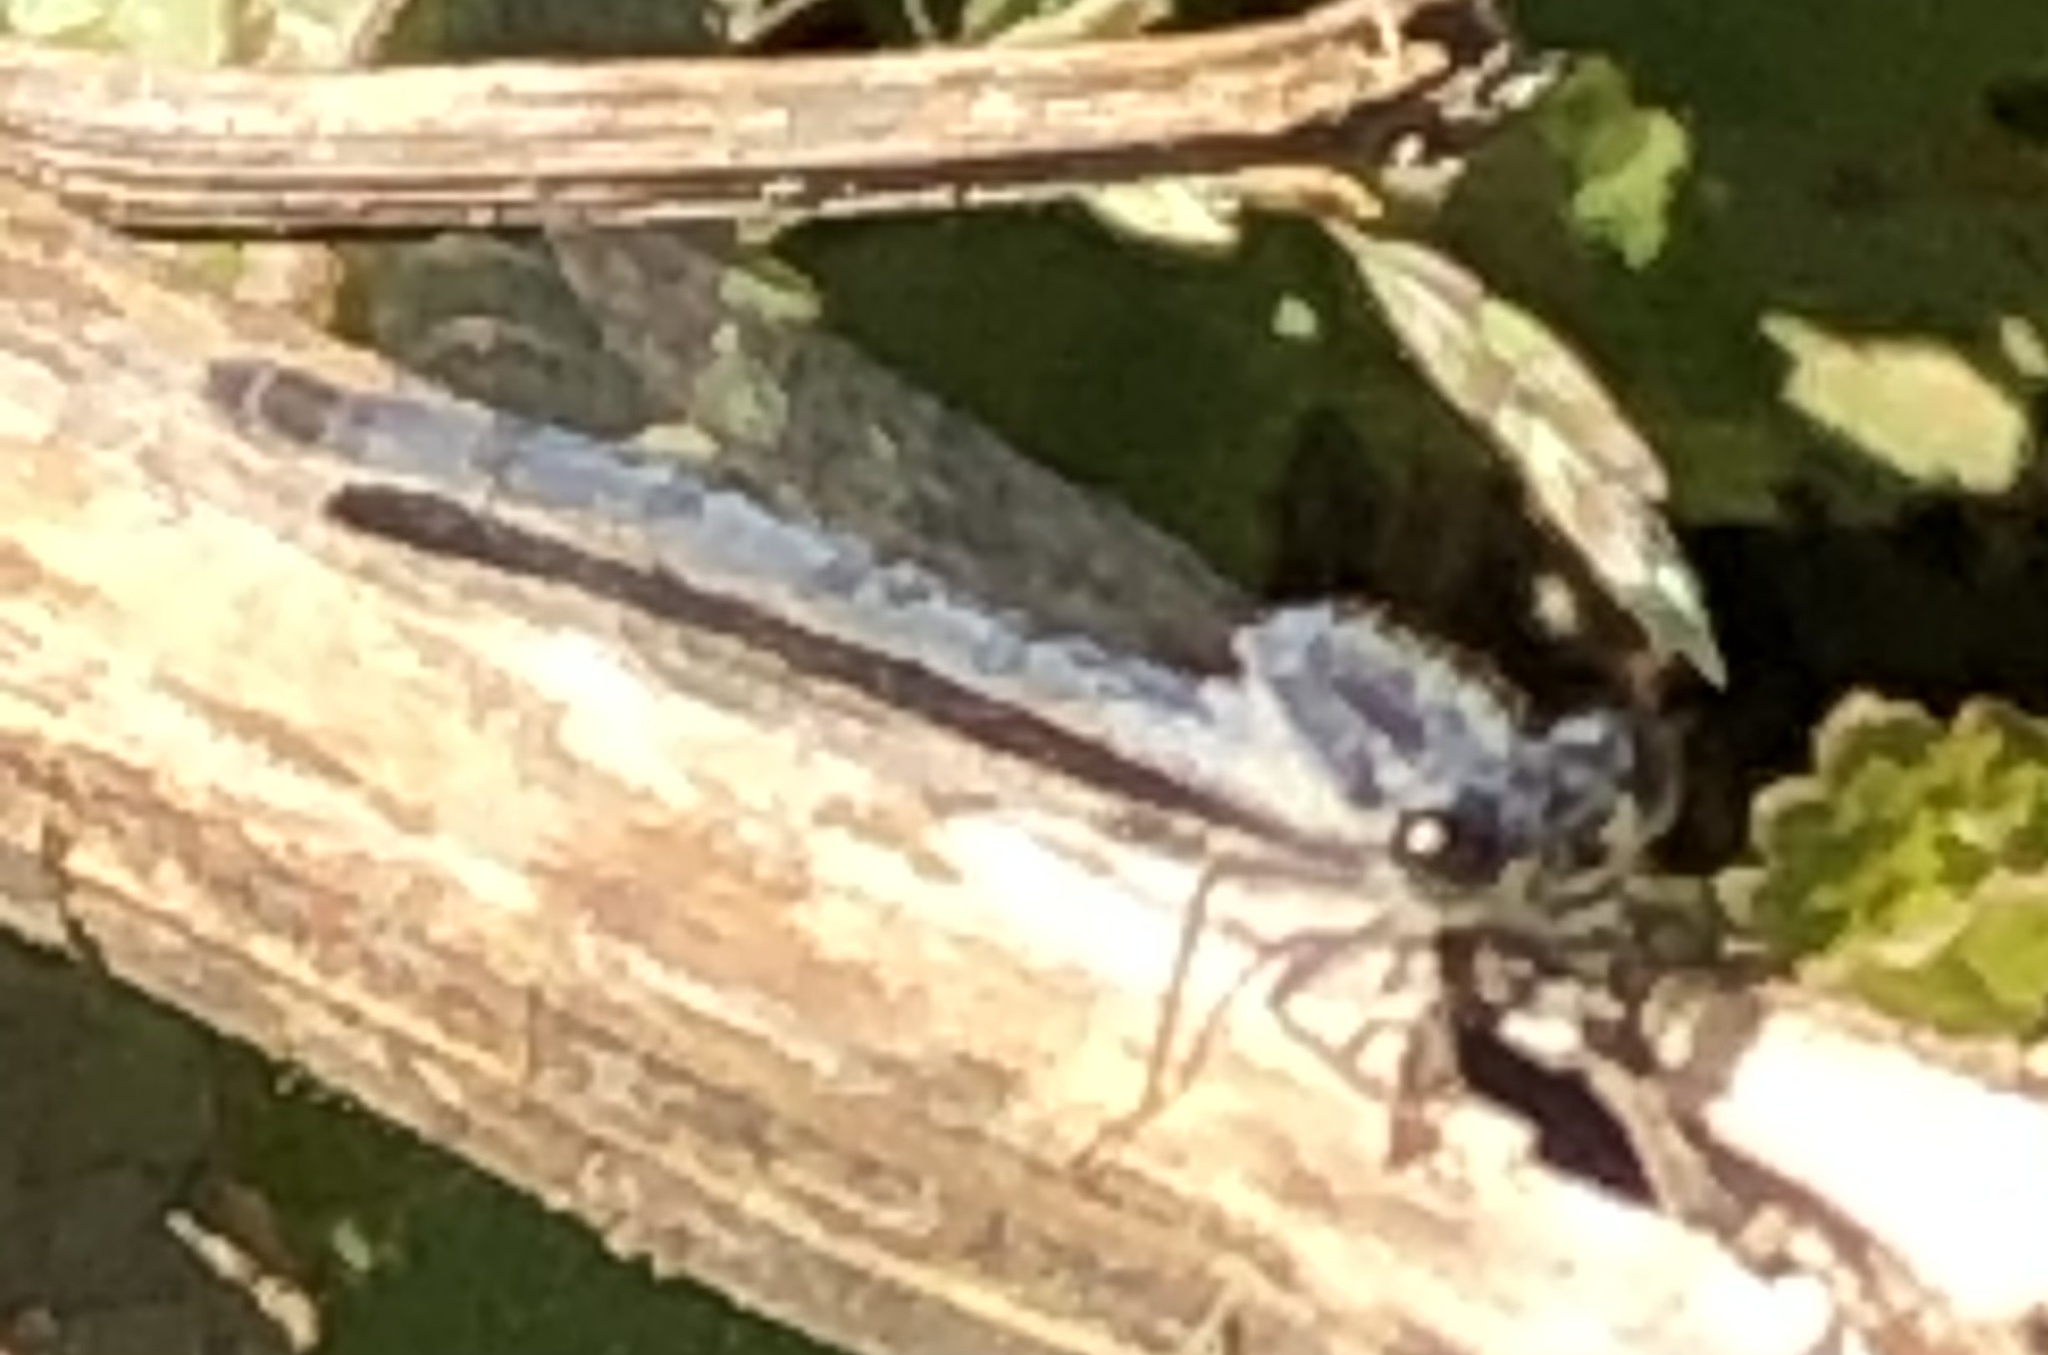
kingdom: Animalia
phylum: Arthropoda
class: Insecta
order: Odonata
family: Coenagrionidae
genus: Ischnura
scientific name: Ischnura posita
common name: Fragile forktail
